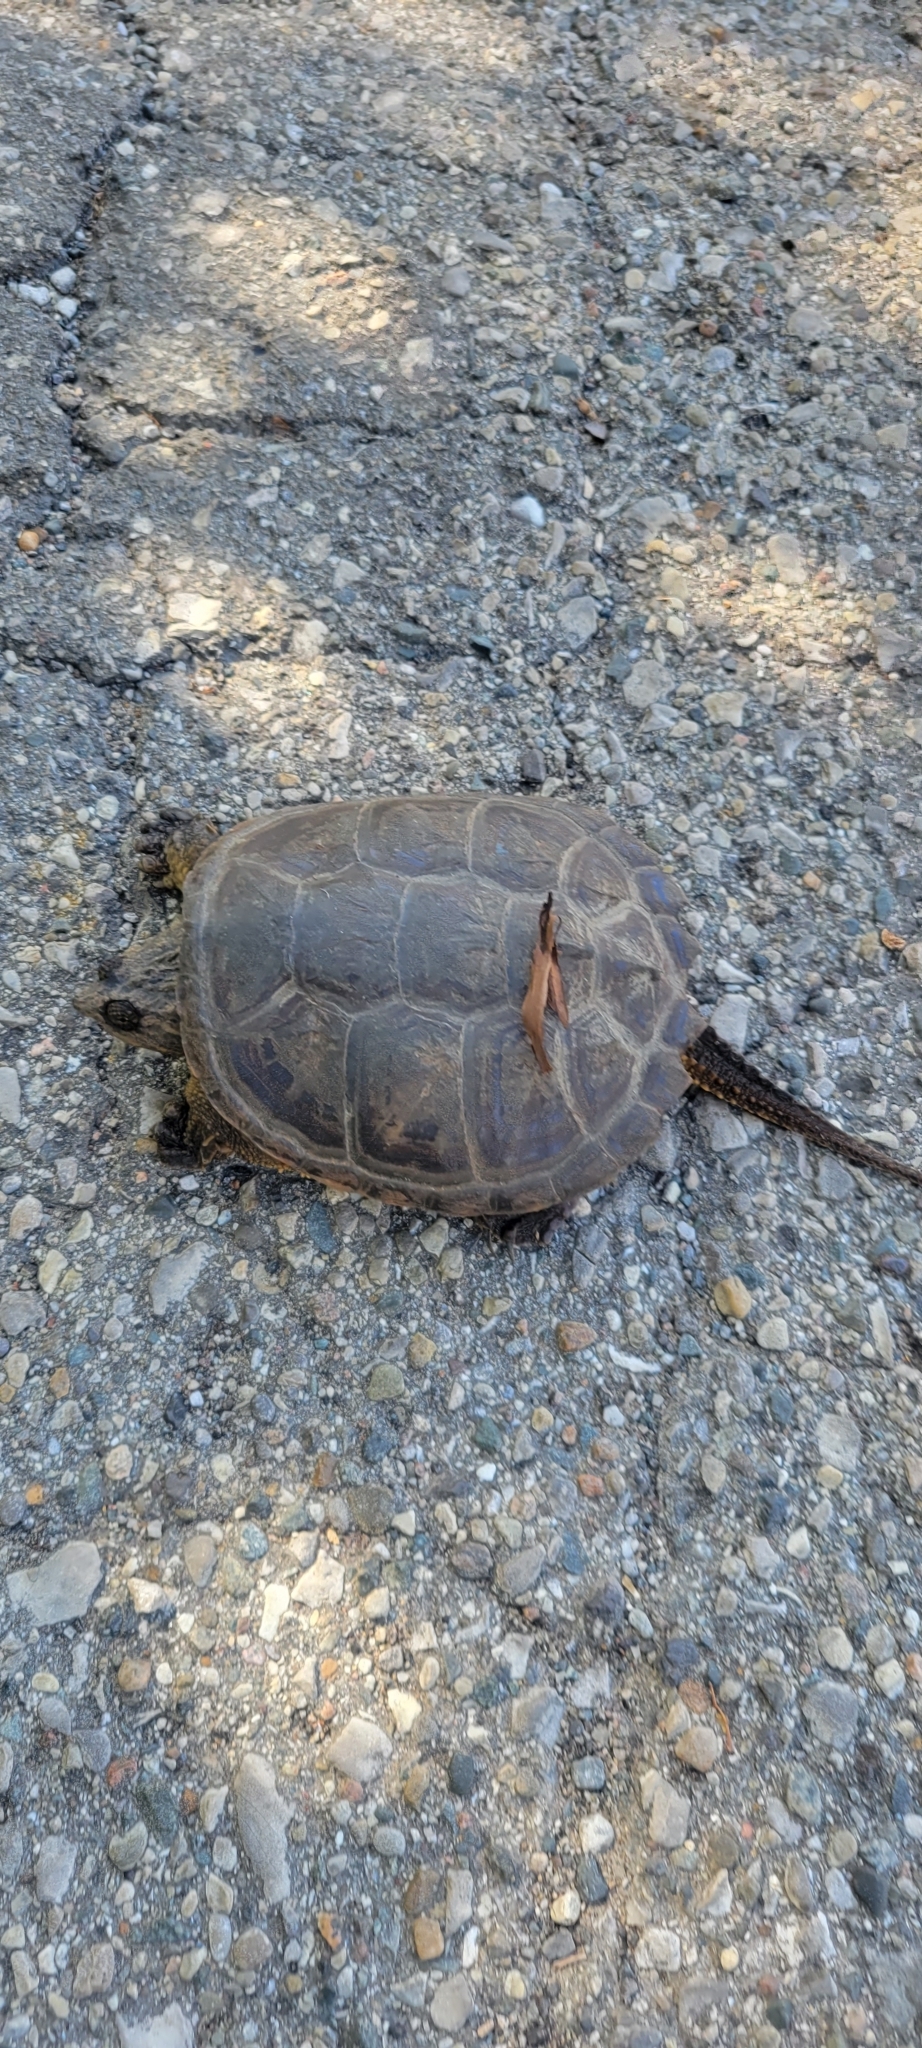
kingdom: Animalia
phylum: Chordata
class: Testudines
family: Chelydridae
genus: Chelydra
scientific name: Chelydra serpentina
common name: Common snapping turtle
